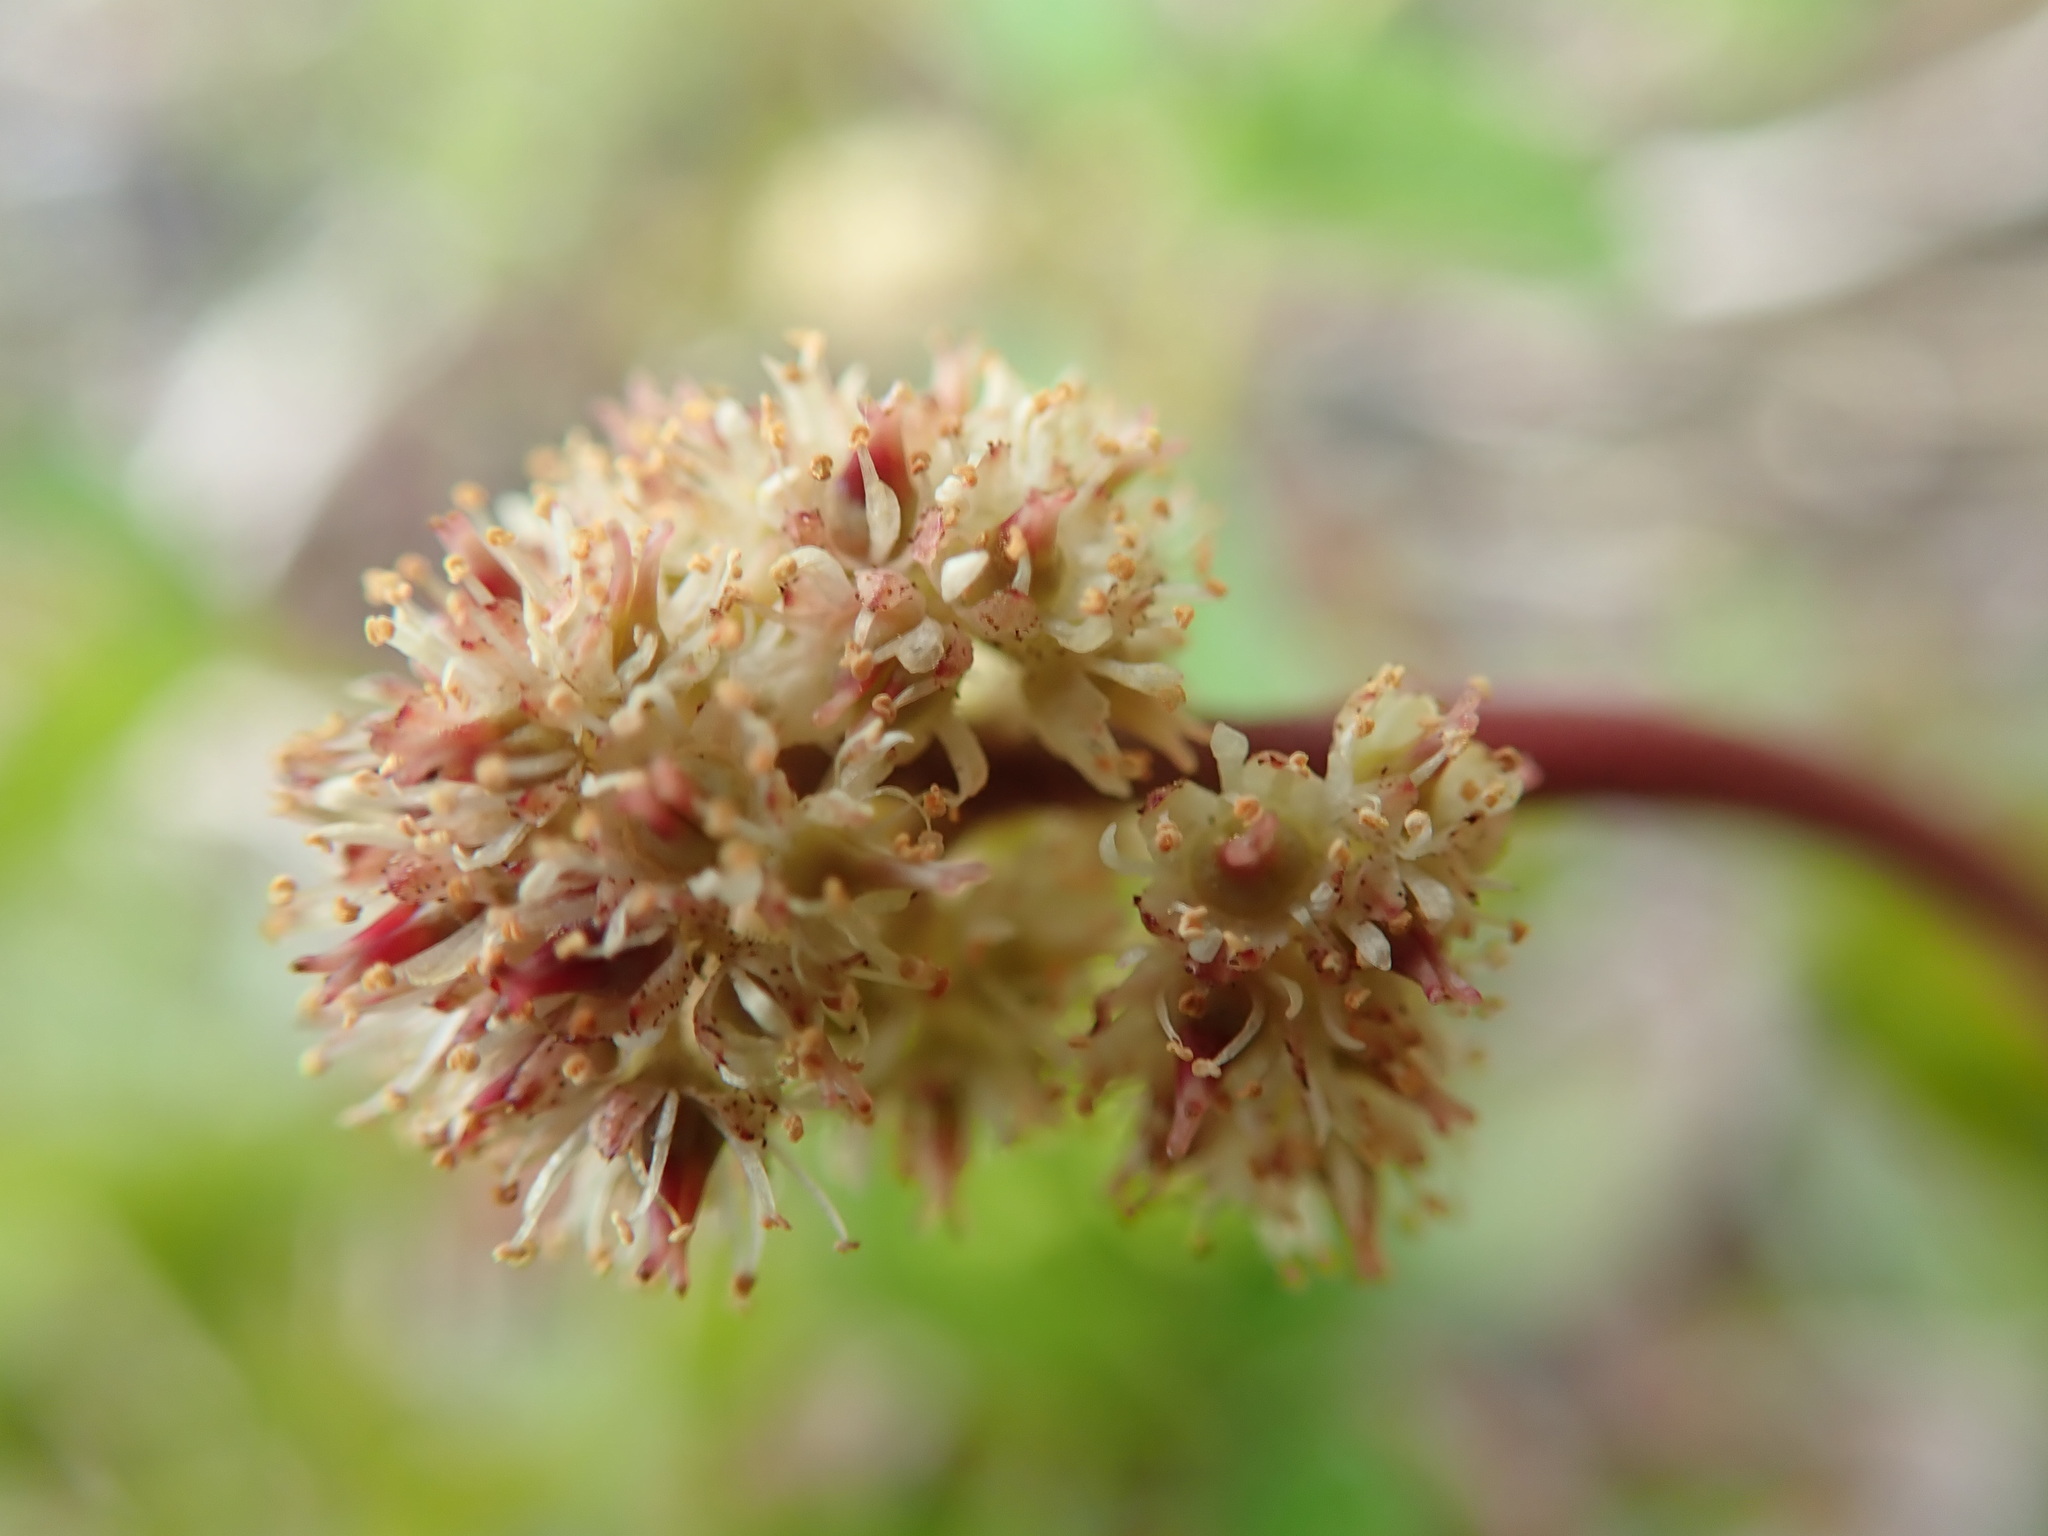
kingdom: Plantae
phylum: Tracheophyta
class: Magnoliopsida
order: Saxifragales
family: Saxifragaceae
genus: Leptarrhena
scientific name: Leptarrhena pyrolifolia
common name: Leatherleaf-saxifrage
